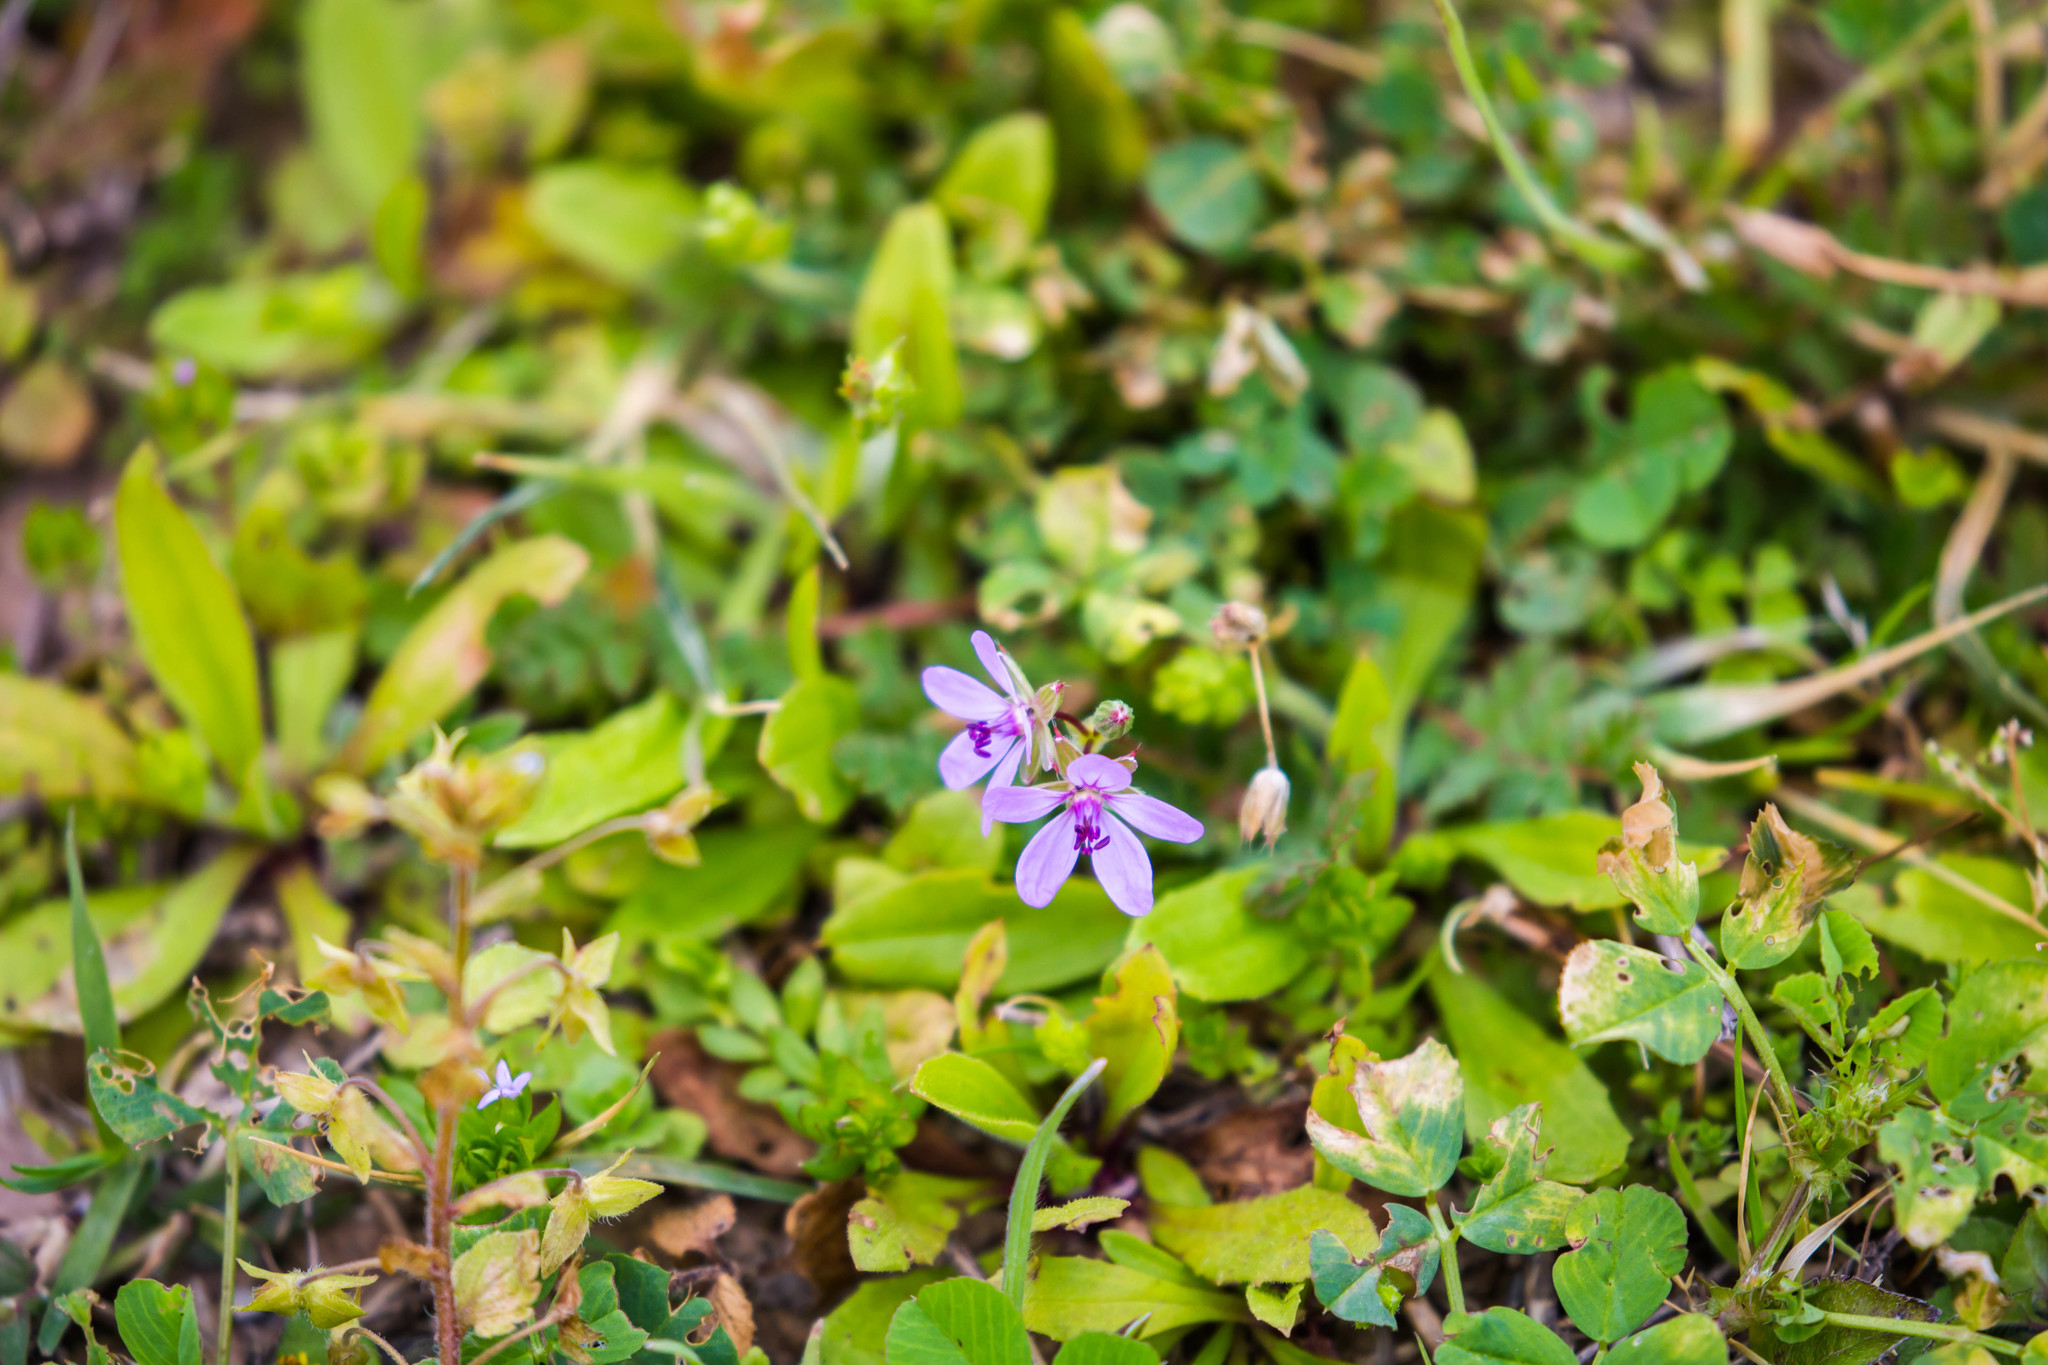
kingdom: Plantae
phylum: Tracheophyta
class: Magnoliopsida
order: Geraniales
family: Geraniaceae
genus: Erodium
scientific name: Erodium cicutarium
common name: Common stork's-bill
